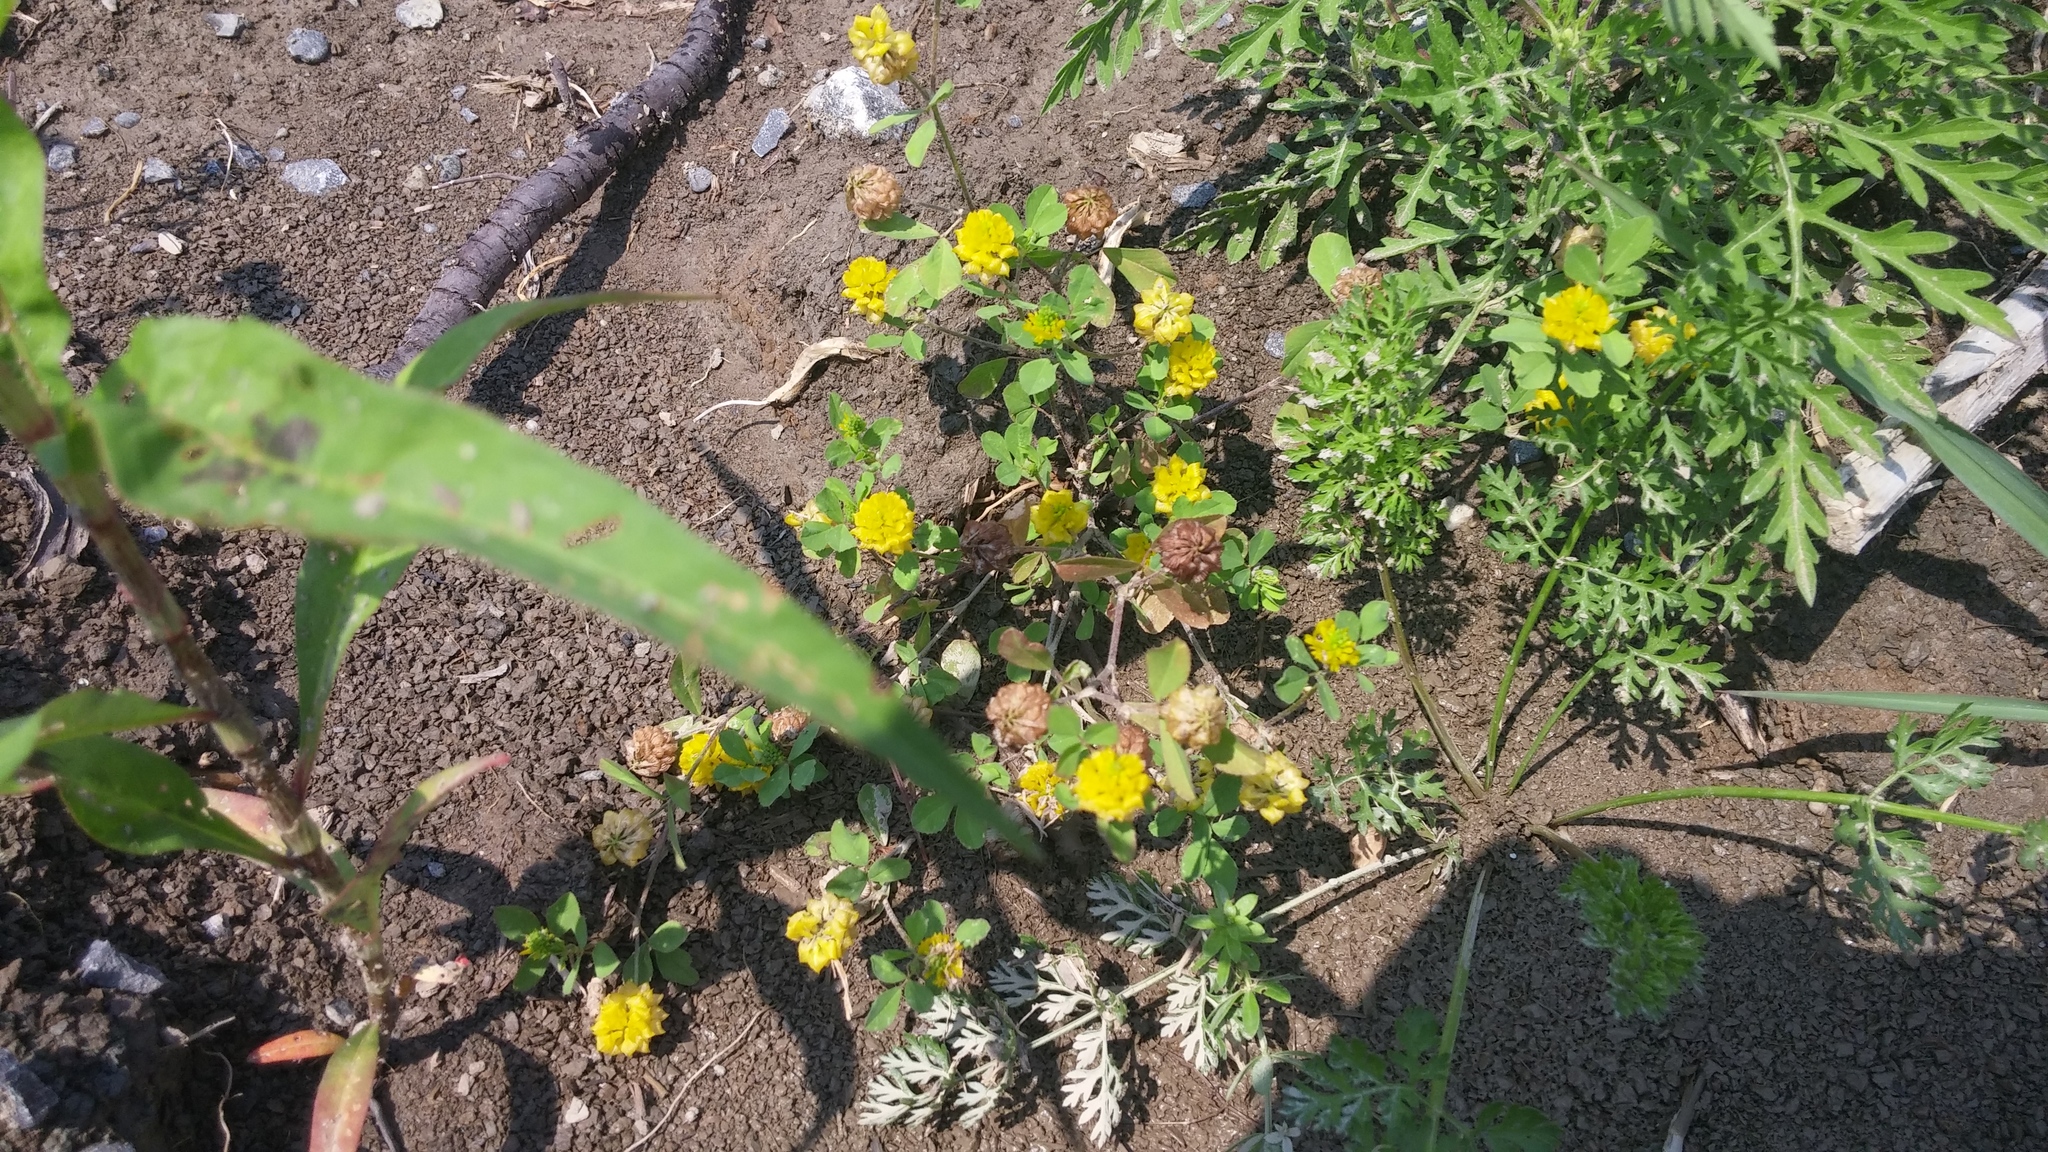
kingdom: Plantae
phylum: Tracheophyta
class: Magnoliopsida
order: Fabales
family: Fabaceae
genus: Trifolium
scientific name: Trifolium campestre
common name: Field clover
